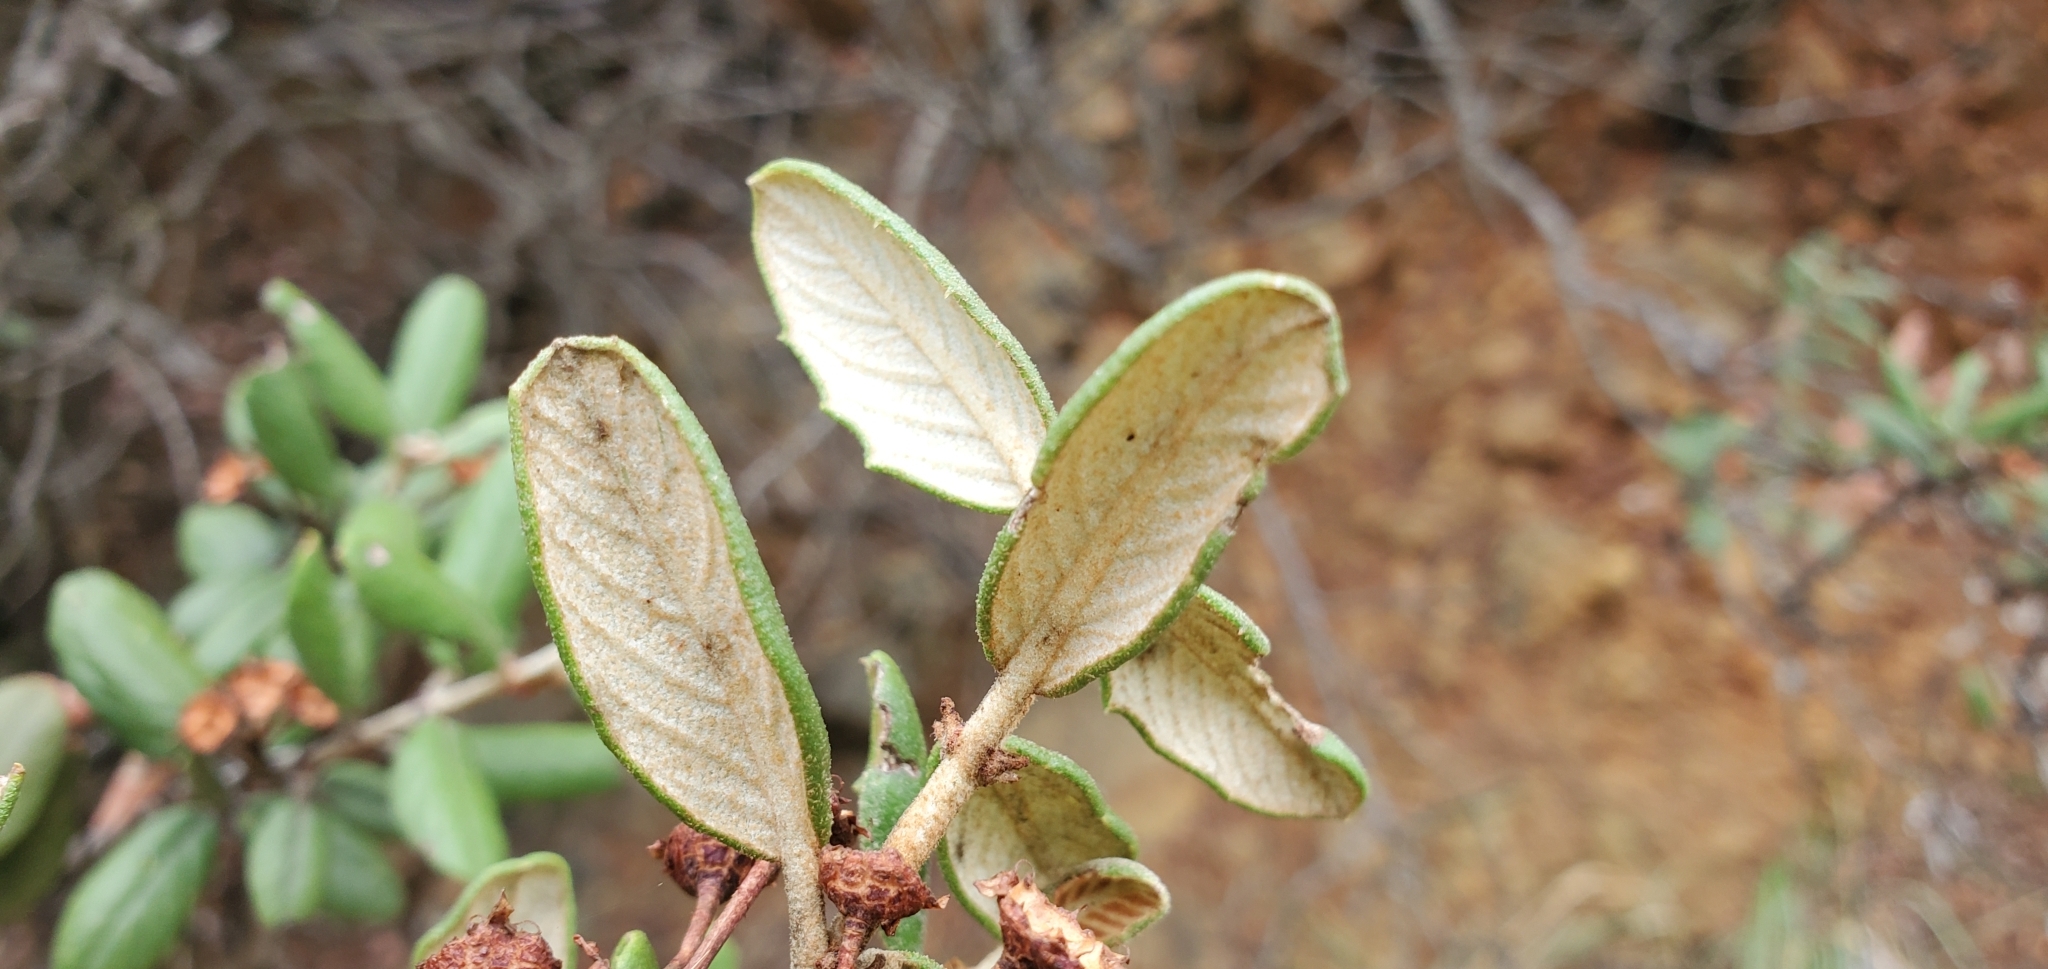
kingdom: Plantae
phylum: Tracheophyta
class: Magnoliopsida
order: Rosales
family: Rhamnaceae
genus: Ceanothus
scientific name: Ceanothus crassifolius
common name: Hoaryleaf ceanothus
